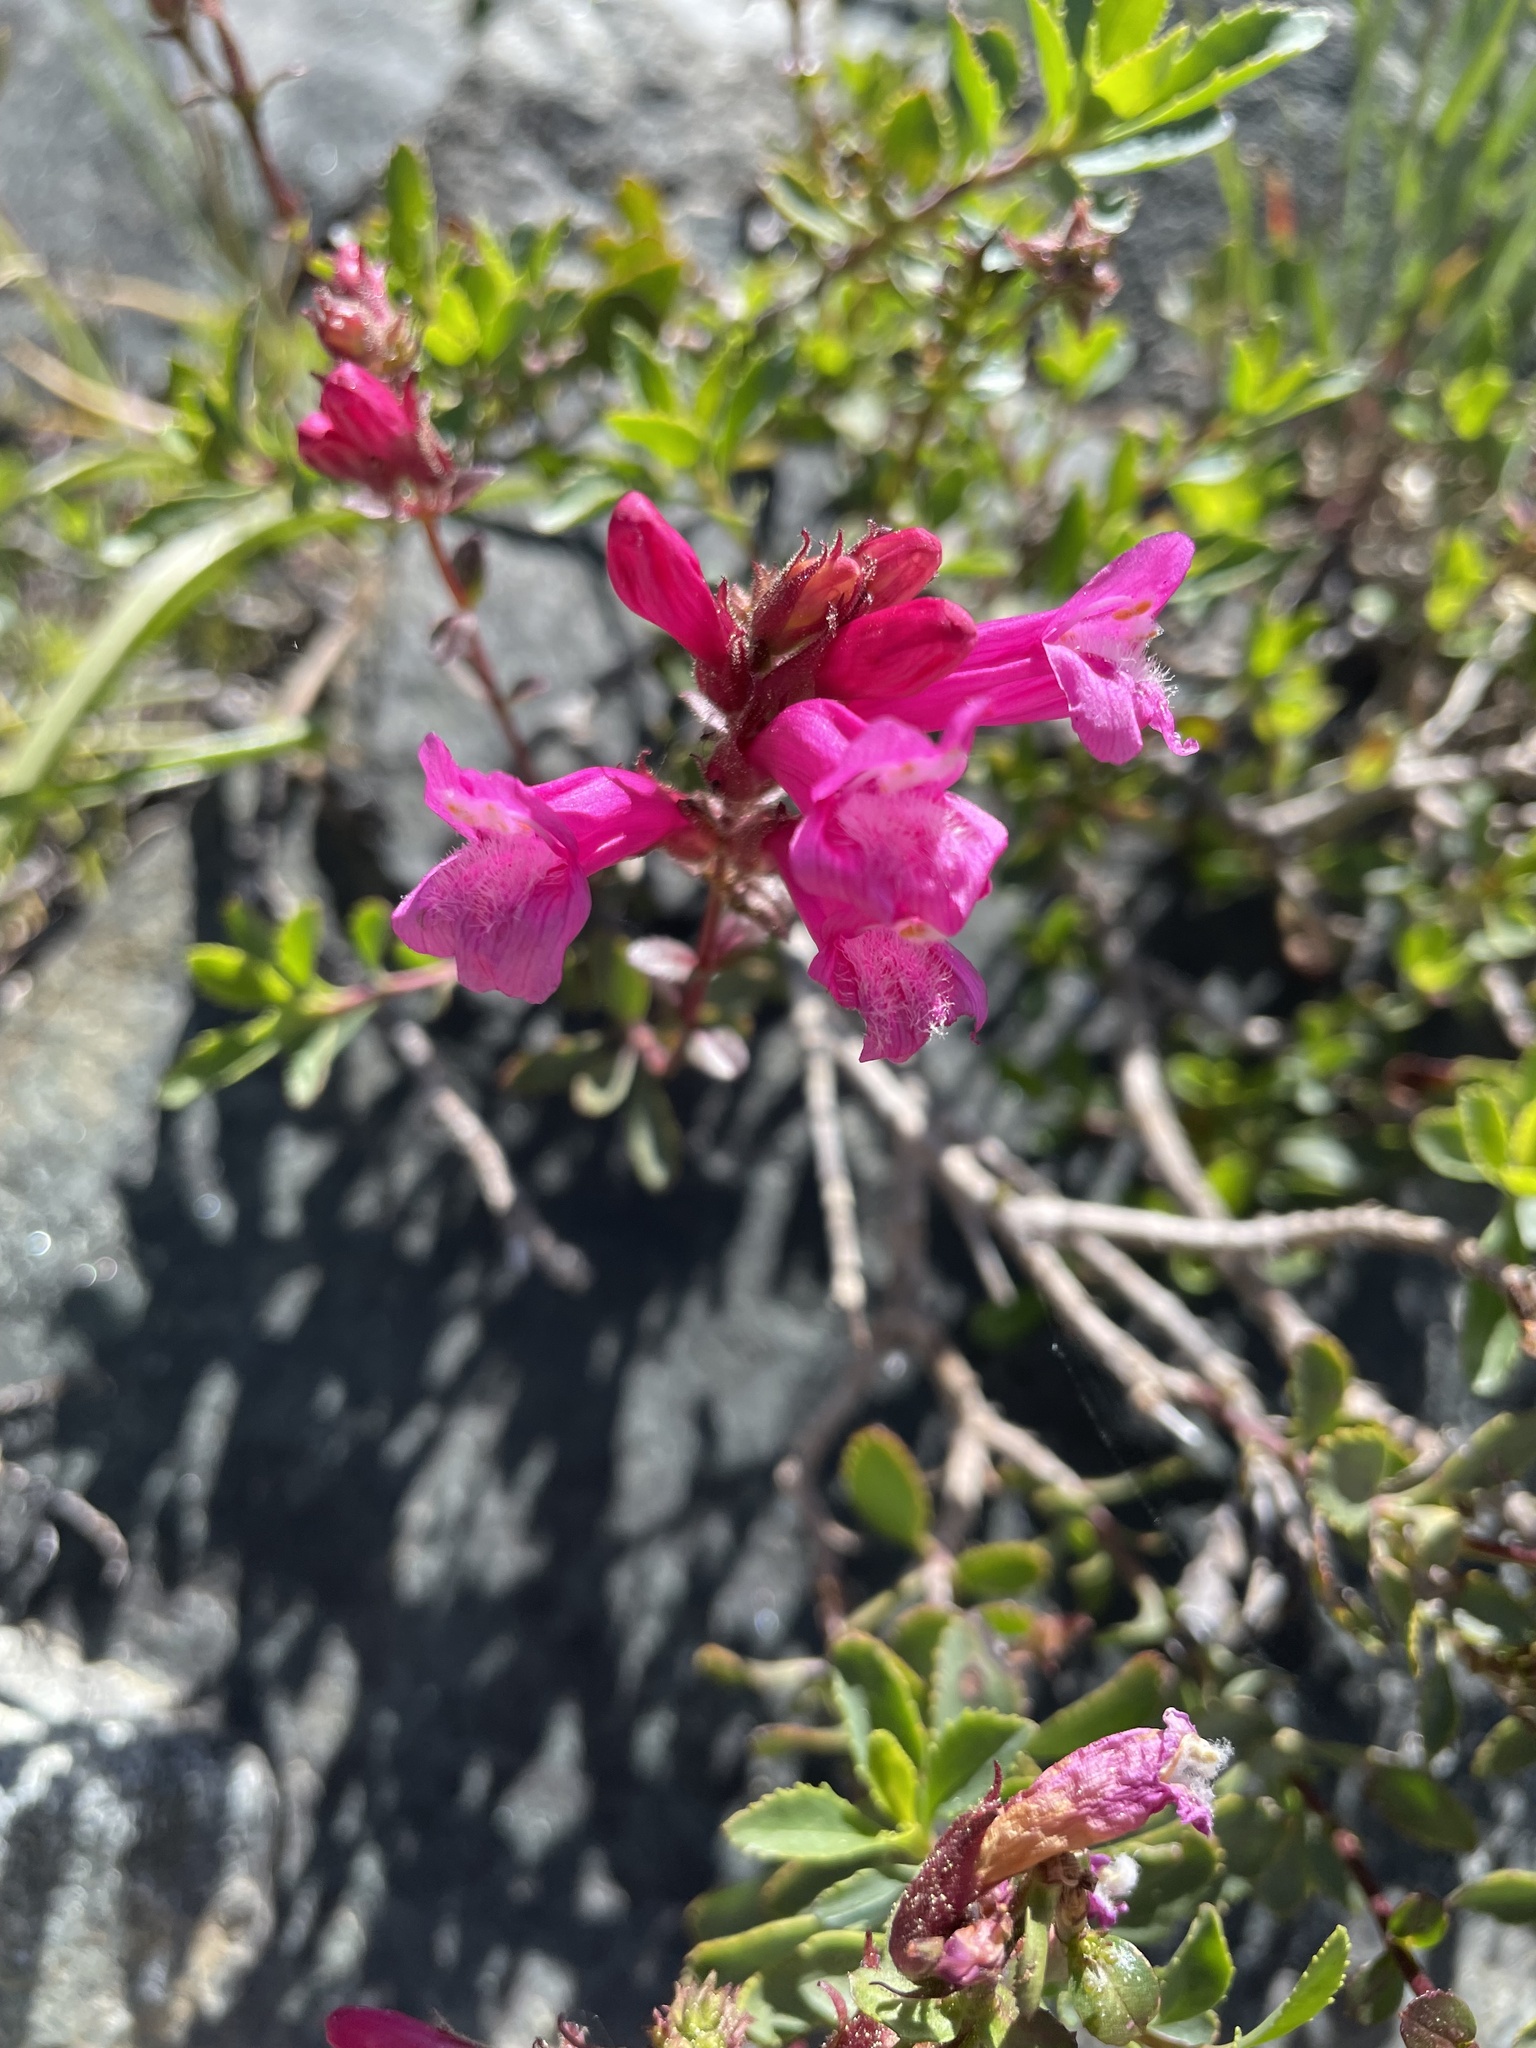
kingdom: Plantae
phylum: Tracheophyta
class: Magnoliopsida
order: Lamiales
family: Plantaginaceae
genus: Penstemon
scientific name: Penstemon newberryi
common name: Mountain-pride
